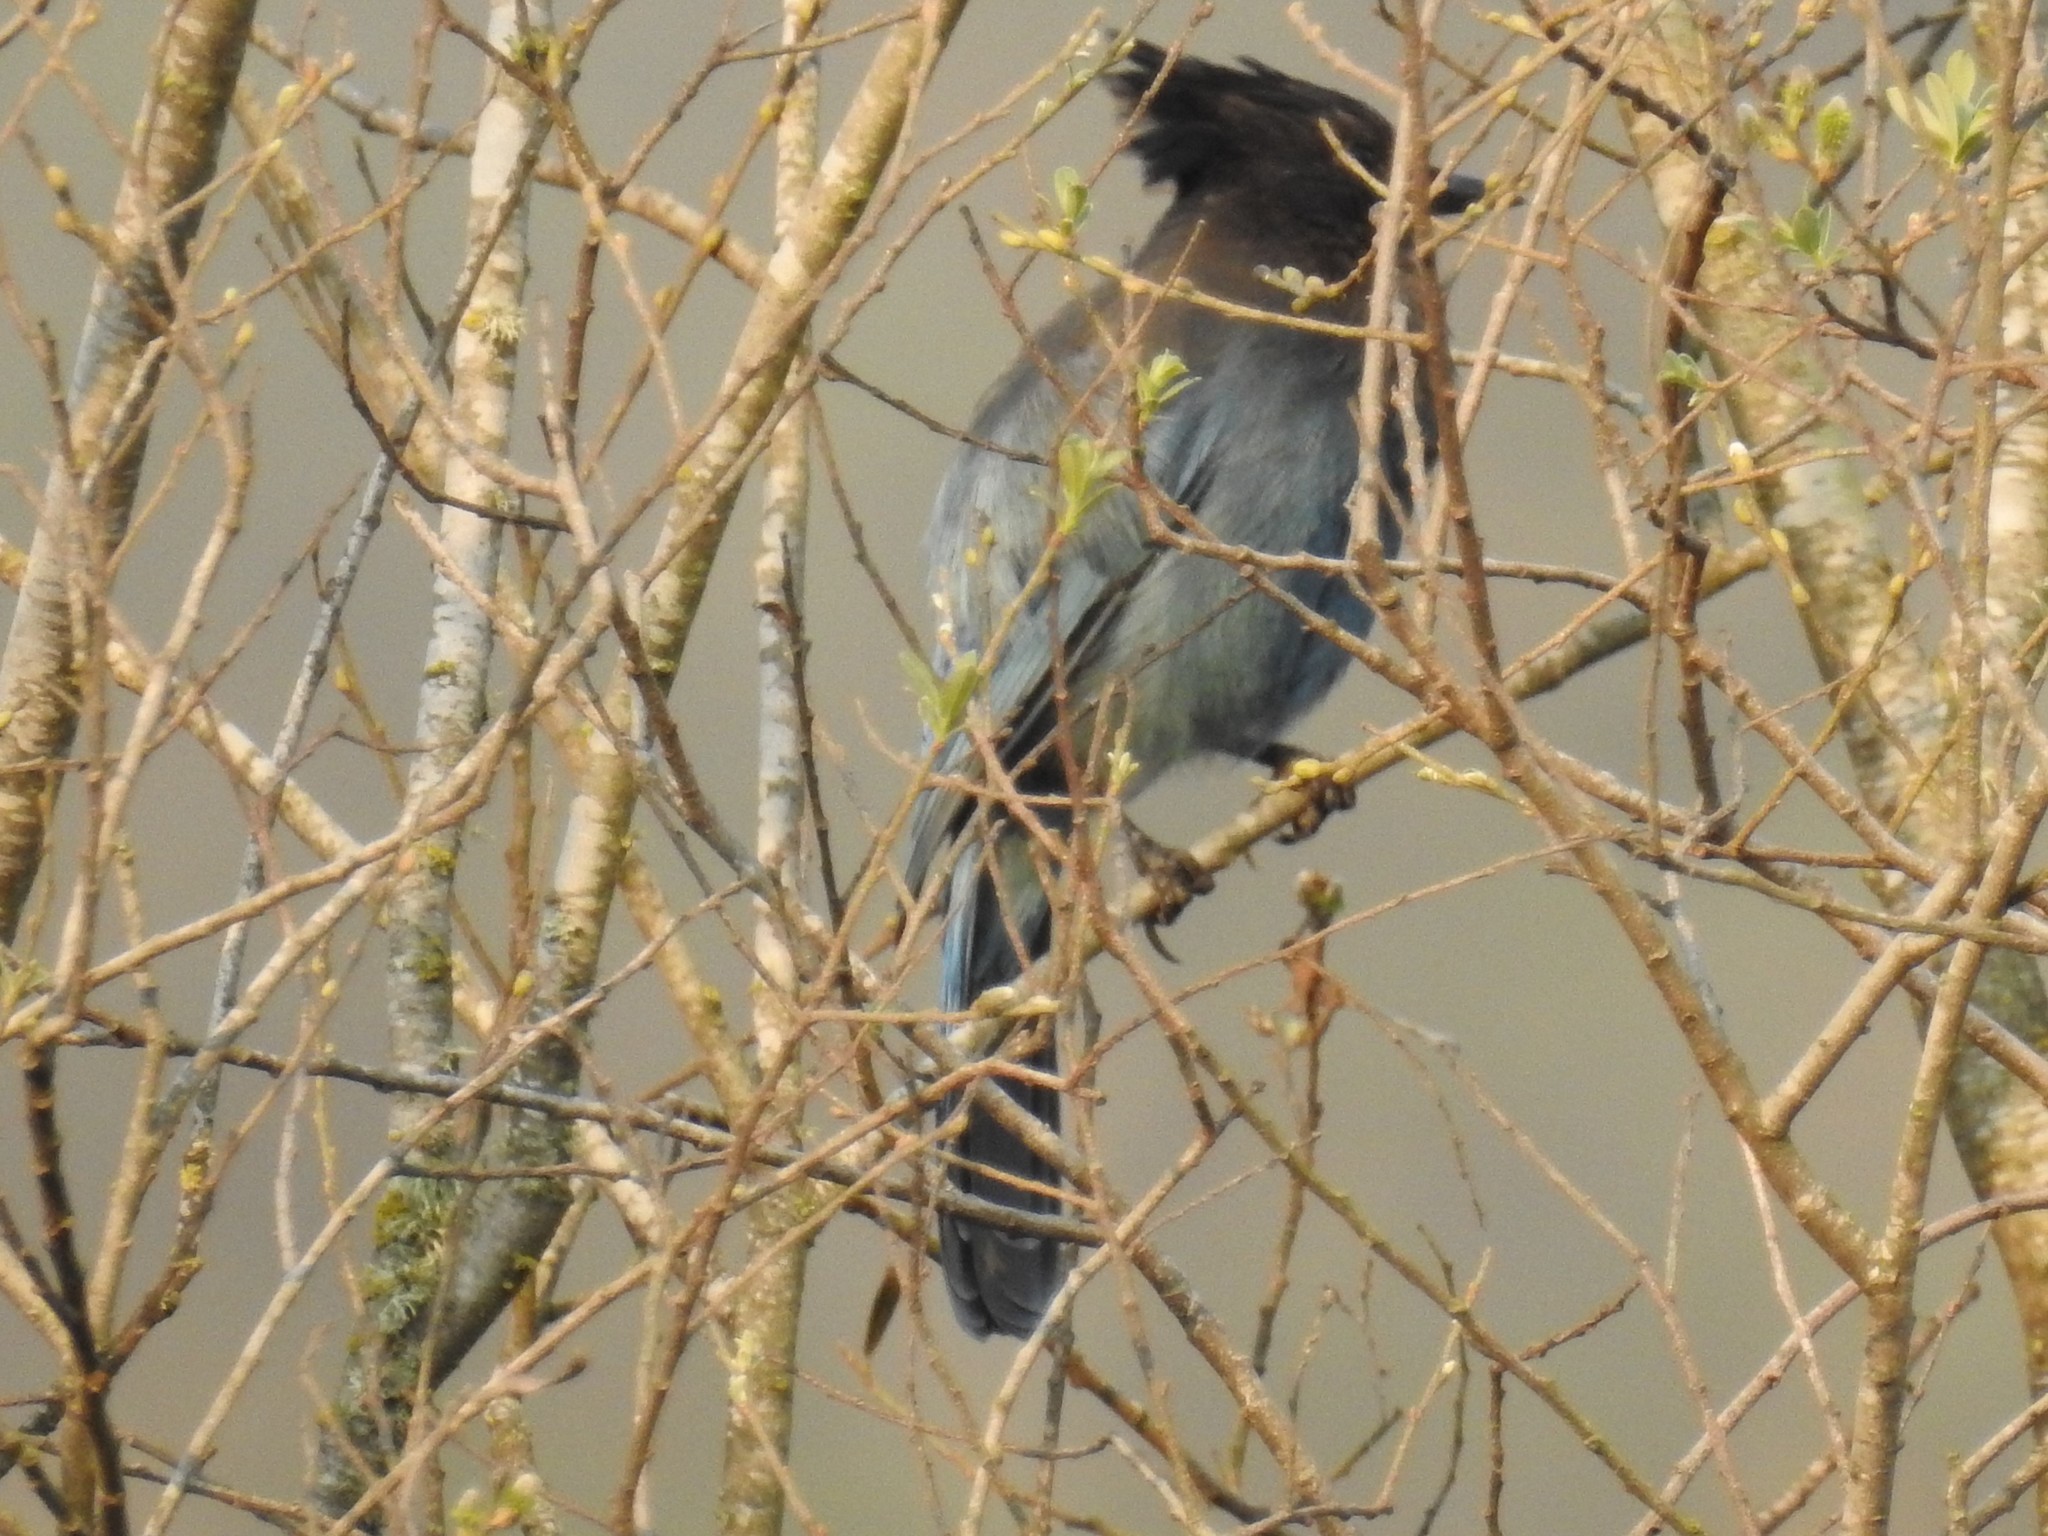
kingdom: Animalia
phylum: Chordata
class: Aves
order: Passeriformes
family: Corvidae
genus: Cyanocitta
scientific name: Cyanocitta stelleri
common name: Steller's jay
